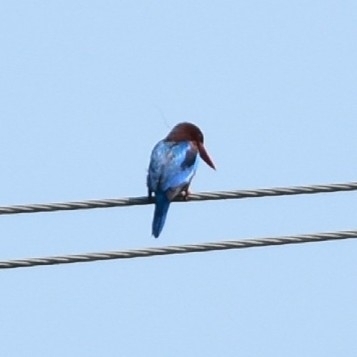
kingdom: Animalia
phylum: Chordata
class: Aves
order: Coraciiformes
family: Alcedinidae
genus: Halcyon
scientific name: Halcyon smyrnensis
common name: White-throated kingfisher
